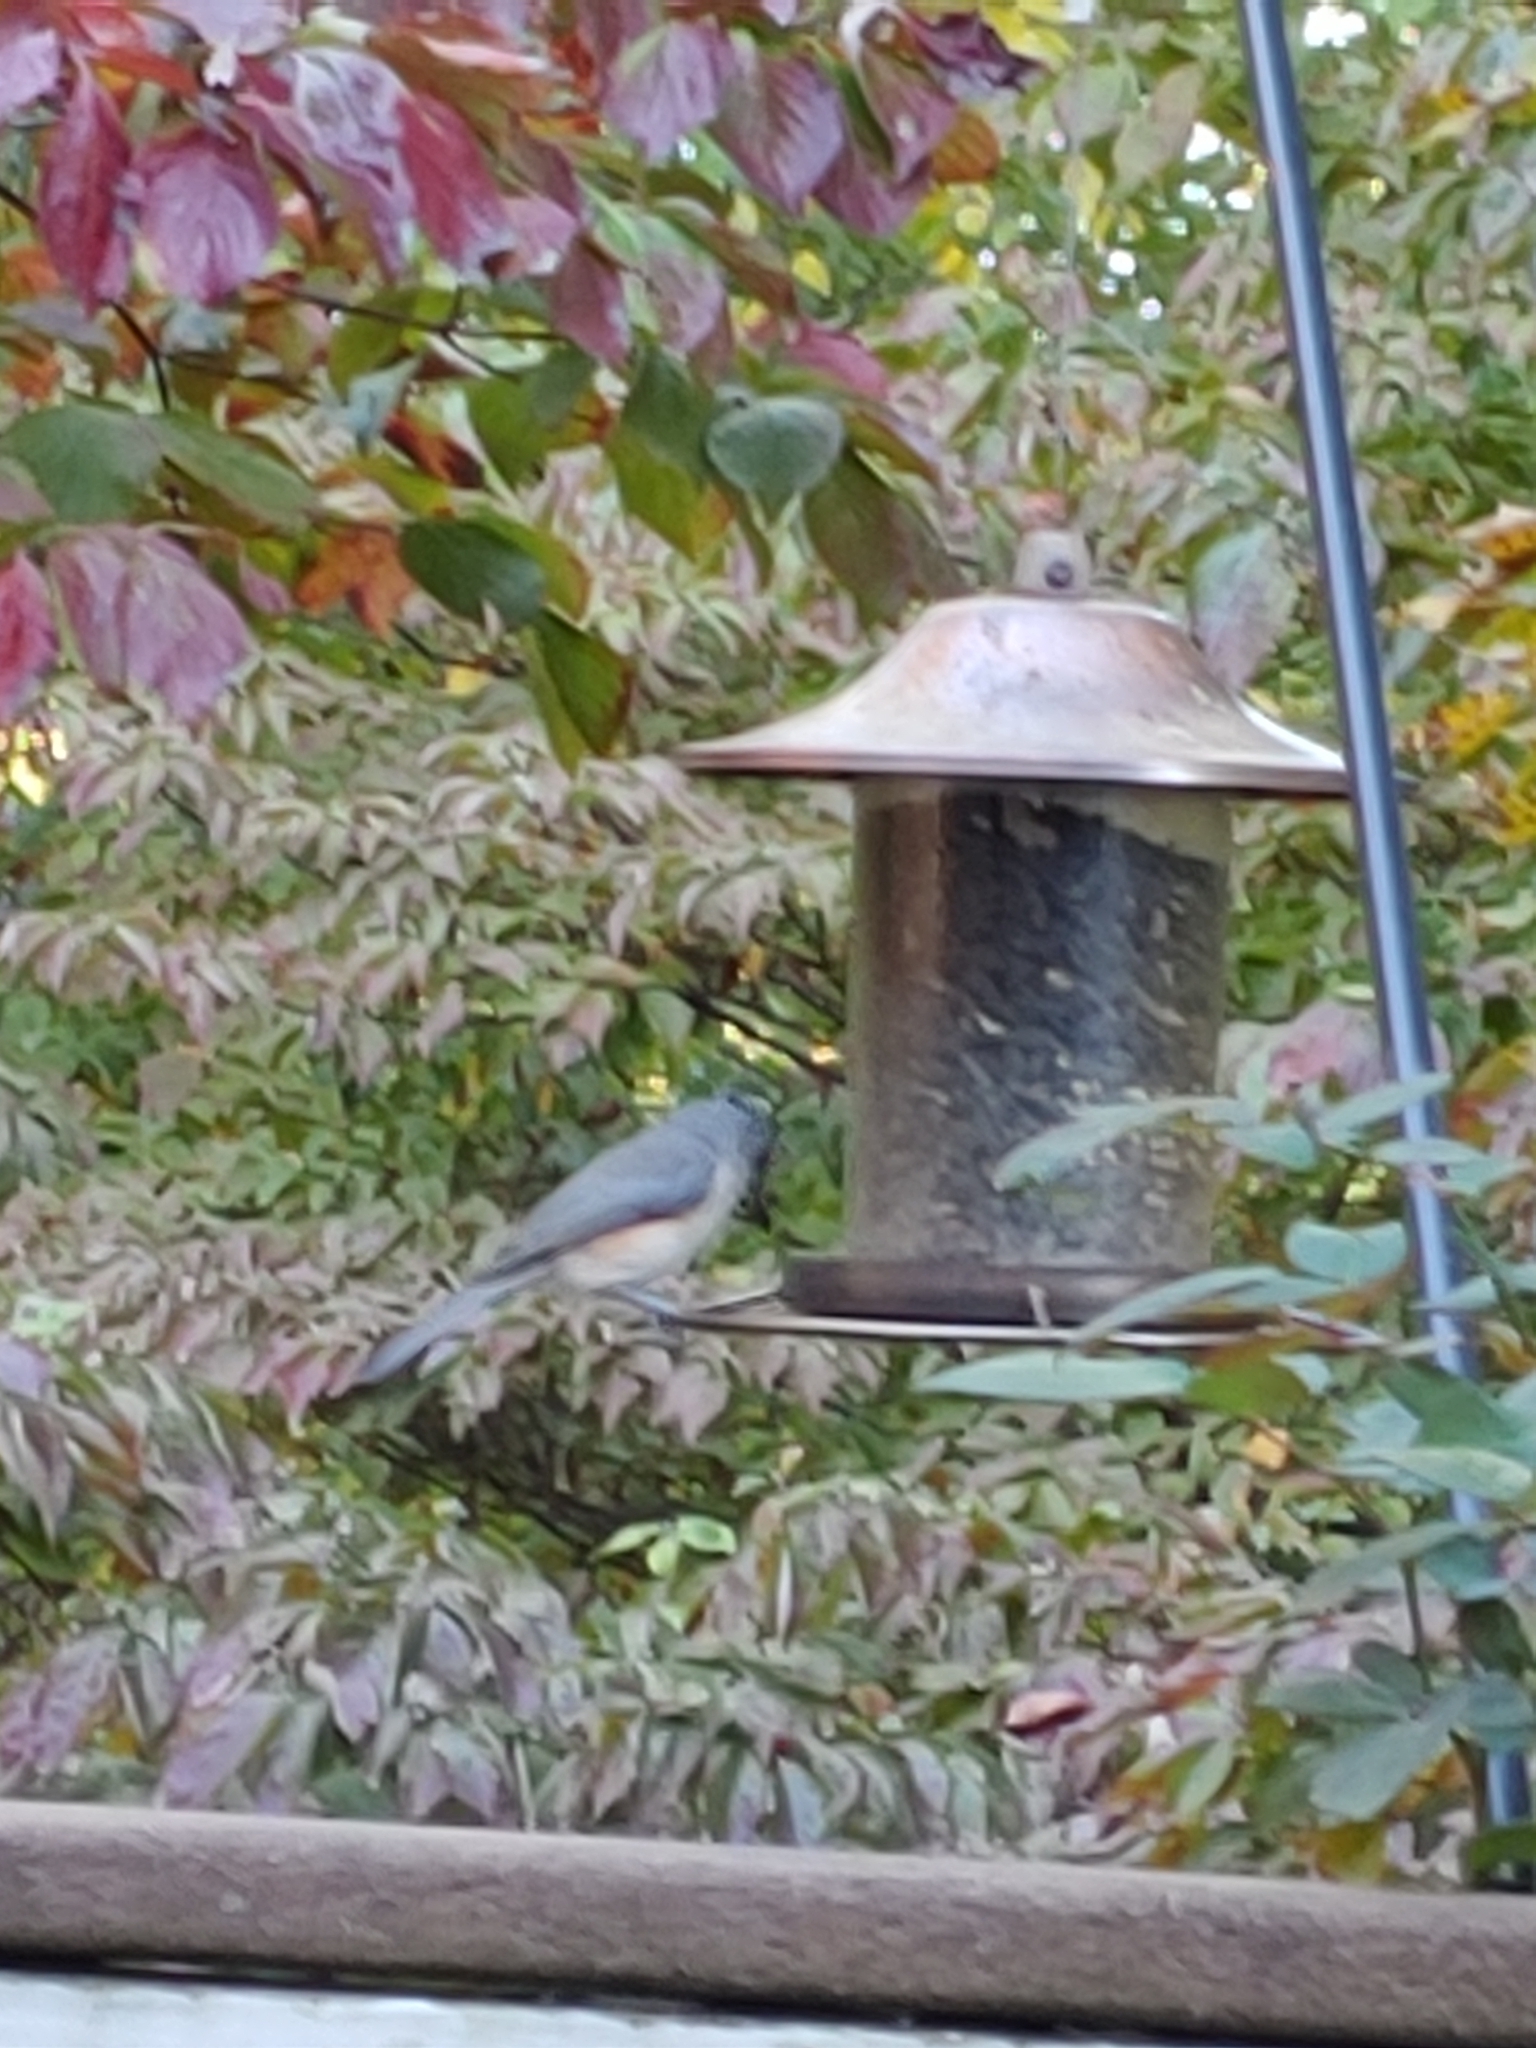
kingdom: Animalia
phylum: Chordata
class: Aves
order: Passeriformes
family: Paridae
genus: Baeolophus
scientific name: Baeolophus bicolor
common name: Tufted titmouse
